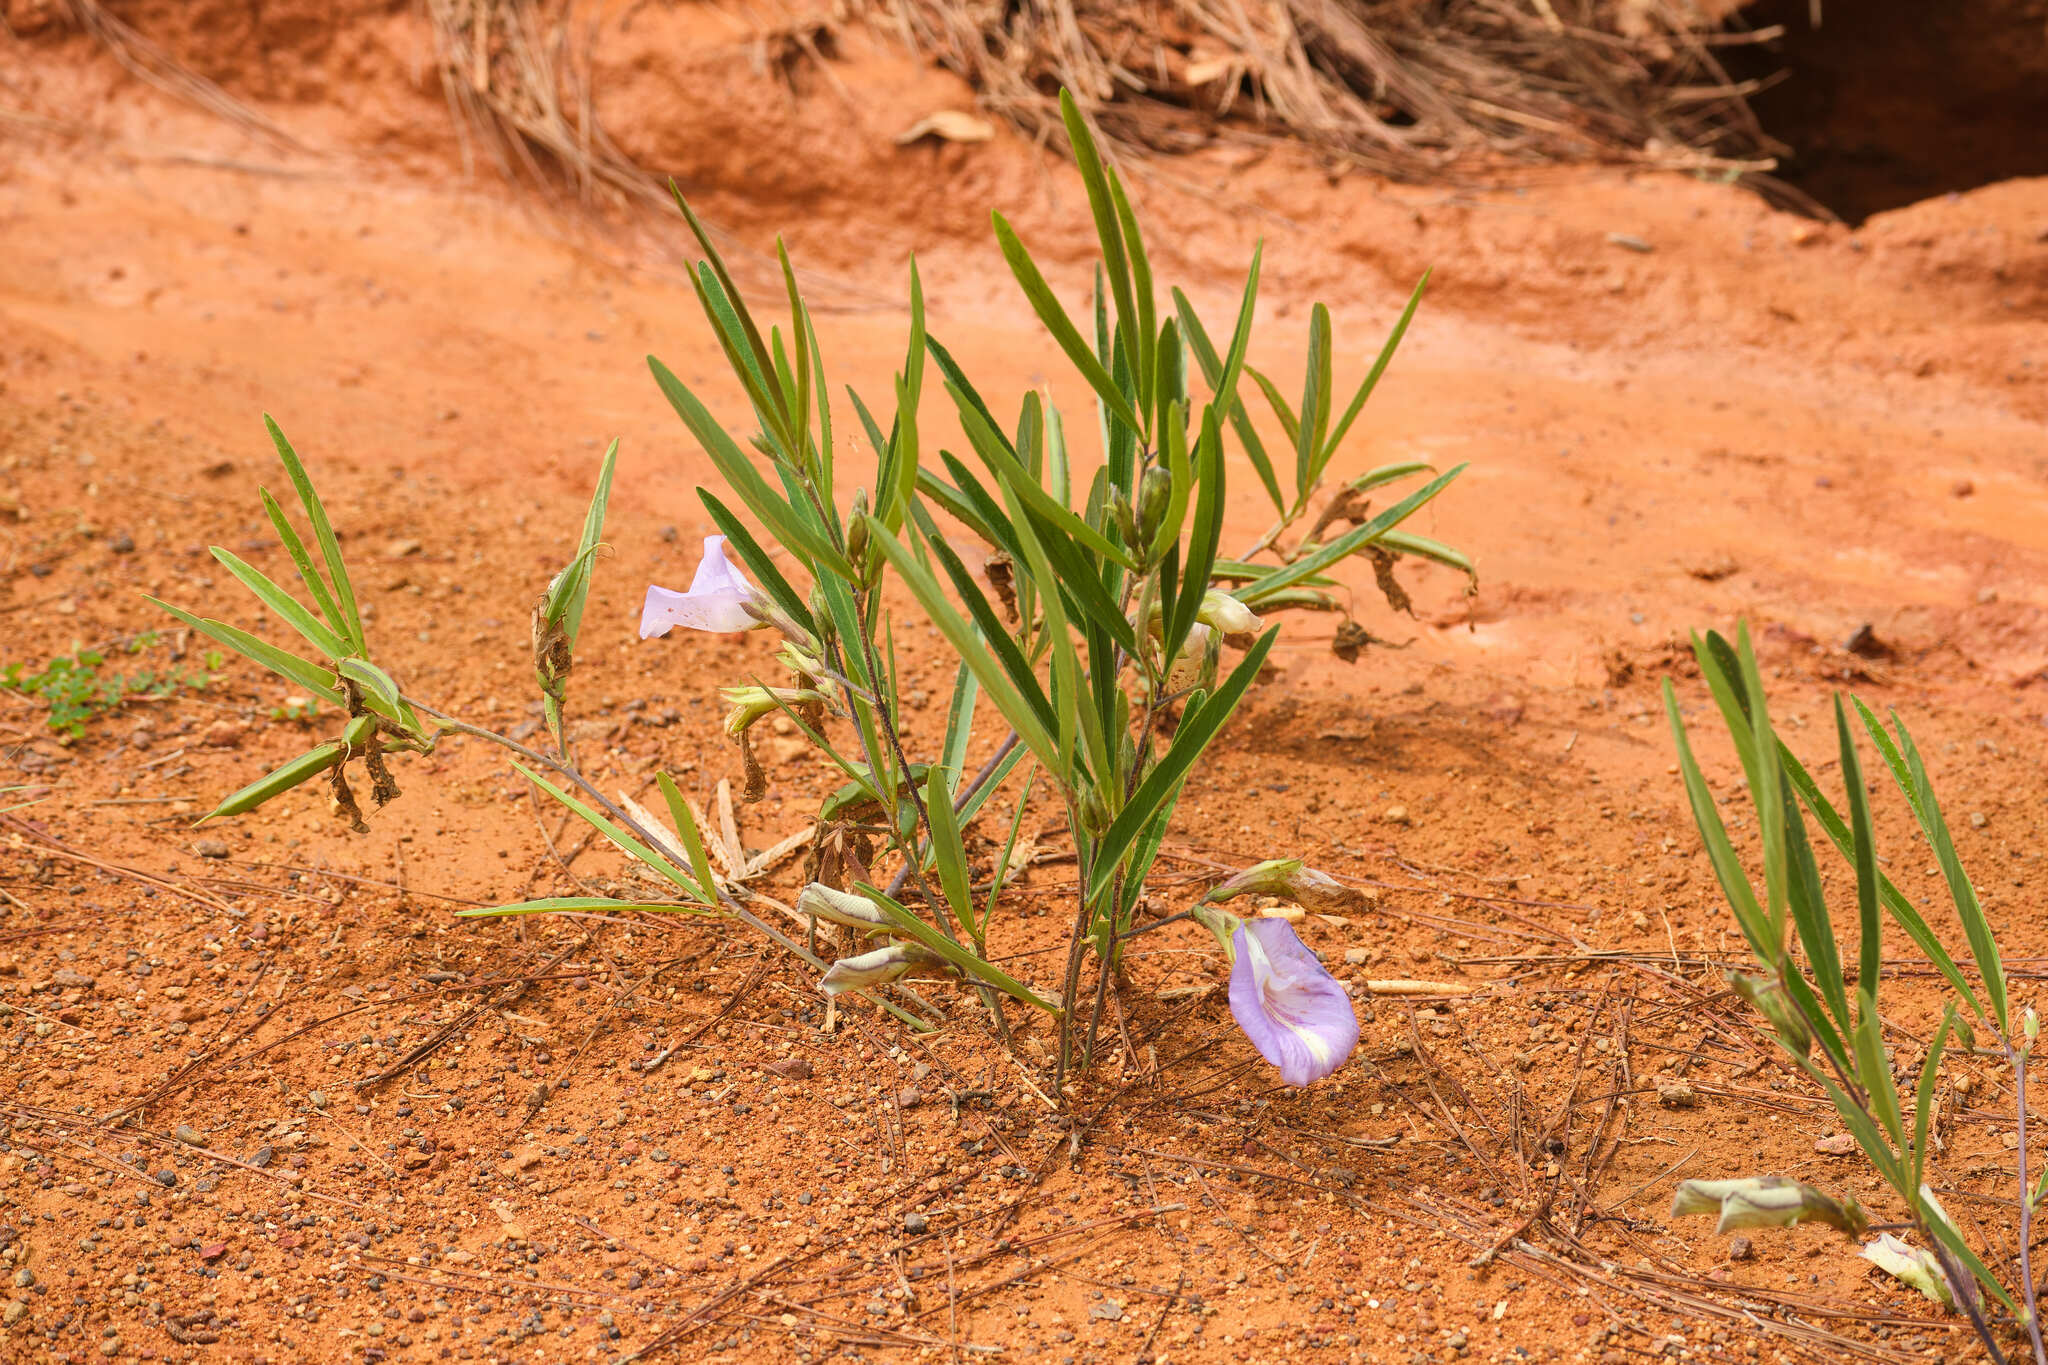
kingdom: Plantae
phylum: Tracheophyta
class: Magnoliopsida
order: Fabales
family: Fabaceae
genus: Clitoria
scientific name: Clitoria guianensis
